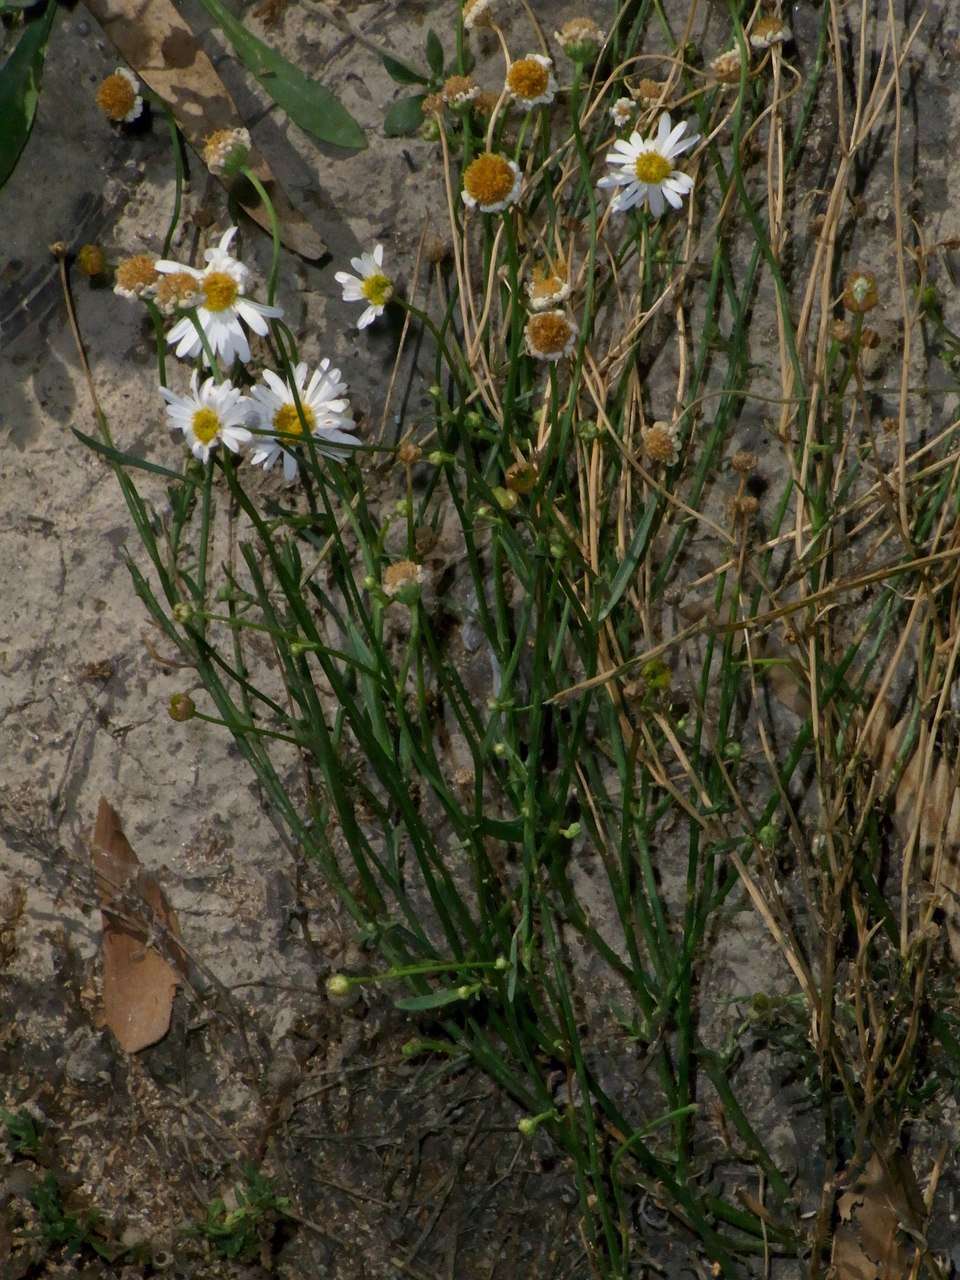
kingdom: Plantae
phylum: Tracheophyta
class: Magnoliopsida
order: Asterales
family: Asteraceae
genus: Brachyscome
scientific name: Brachyscome basaltica
